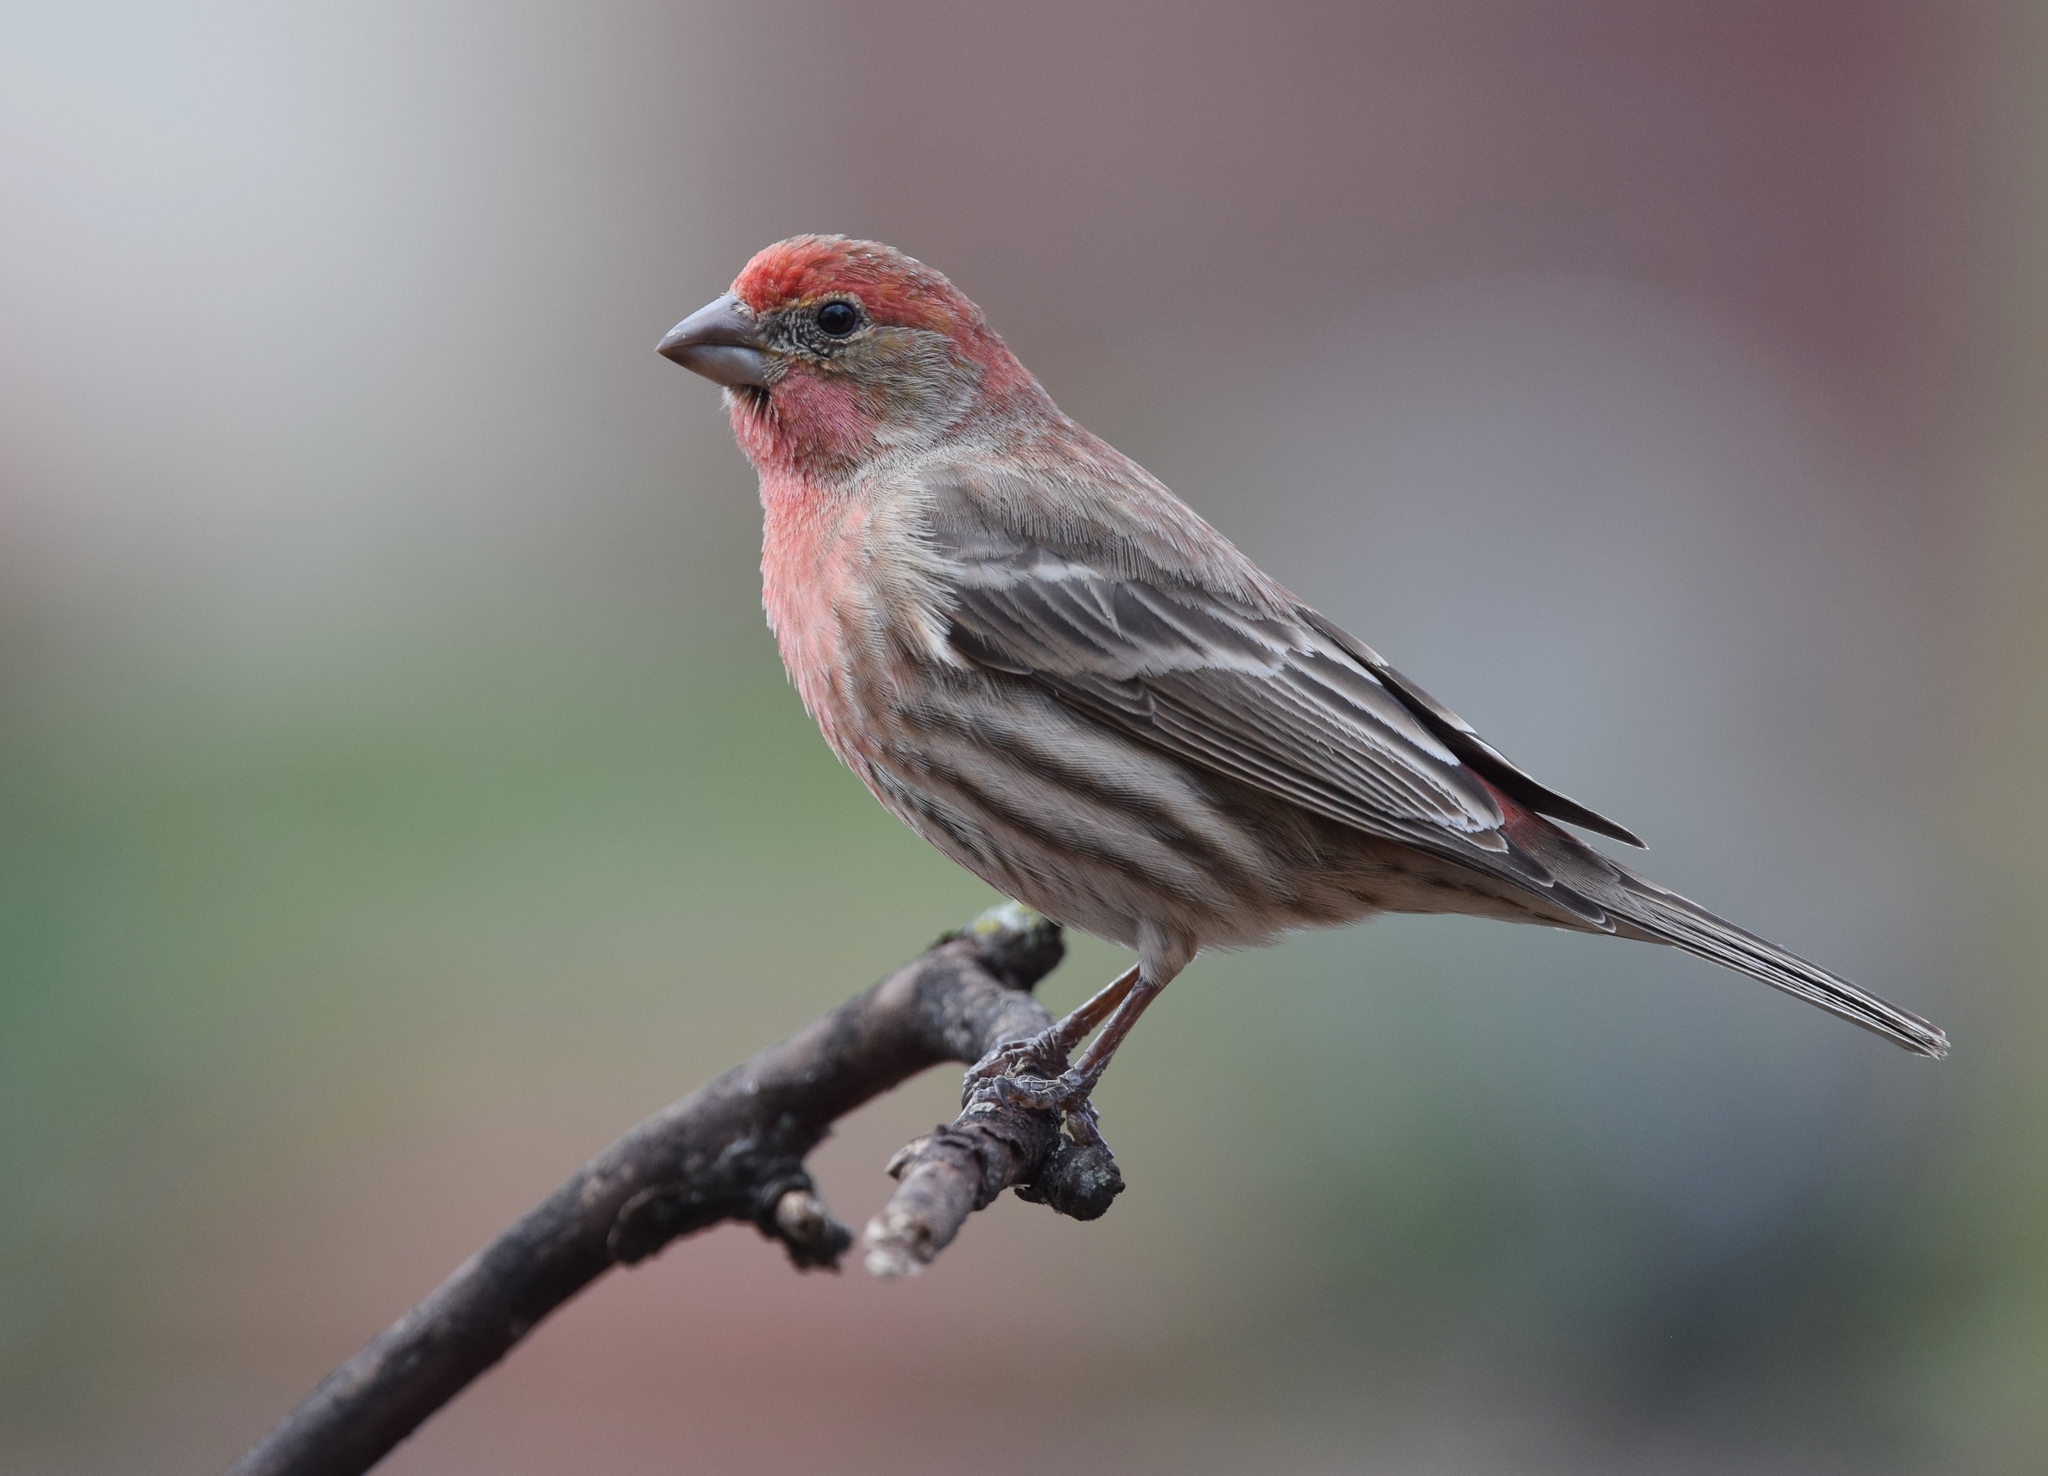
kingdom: Animalia
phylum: Chordata
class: Aves
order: Passeriformes
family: Fringillidae
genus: Haemorhous
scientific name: Haemorhous mexicanus
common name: House finch
